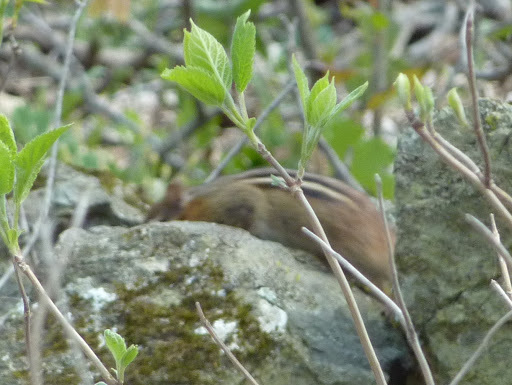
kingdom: Animalia
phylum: Chordata
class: Mammalia
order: Rodentia
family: Sciuridae
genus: Tamias
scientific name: Tamias striatus
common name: Eastern chipmunk
